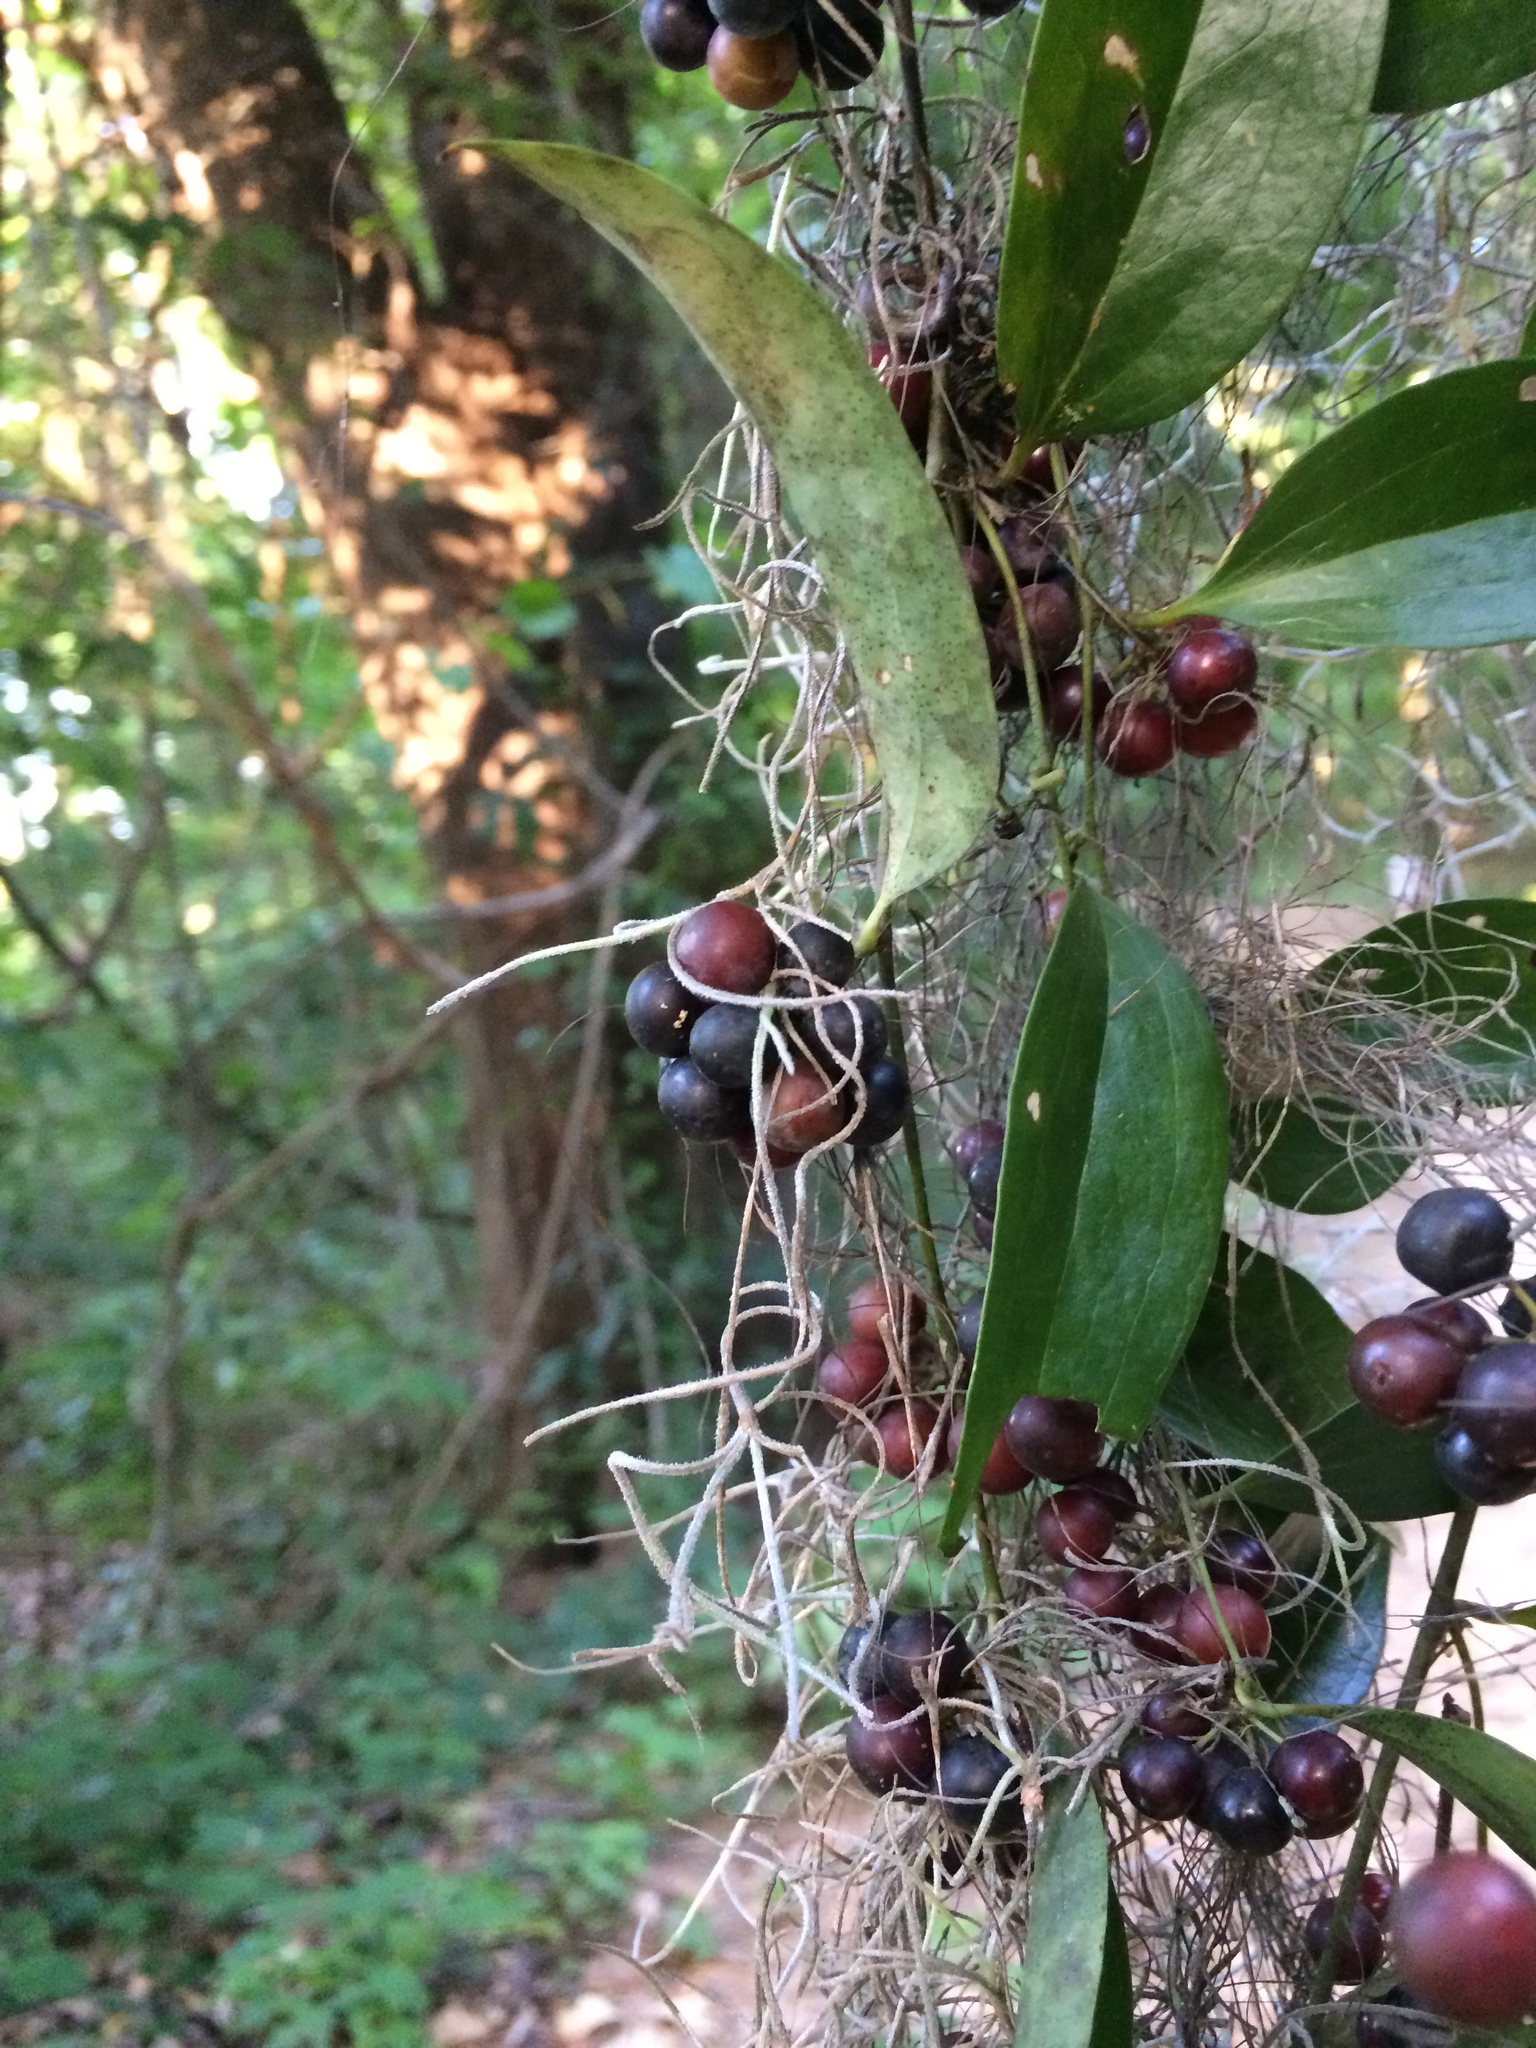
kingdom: Plantae
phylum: Tracheophyta
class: Liliopsida
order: Liliales
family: Smilacaceae
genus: Smilax
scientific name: Smilax maritima
